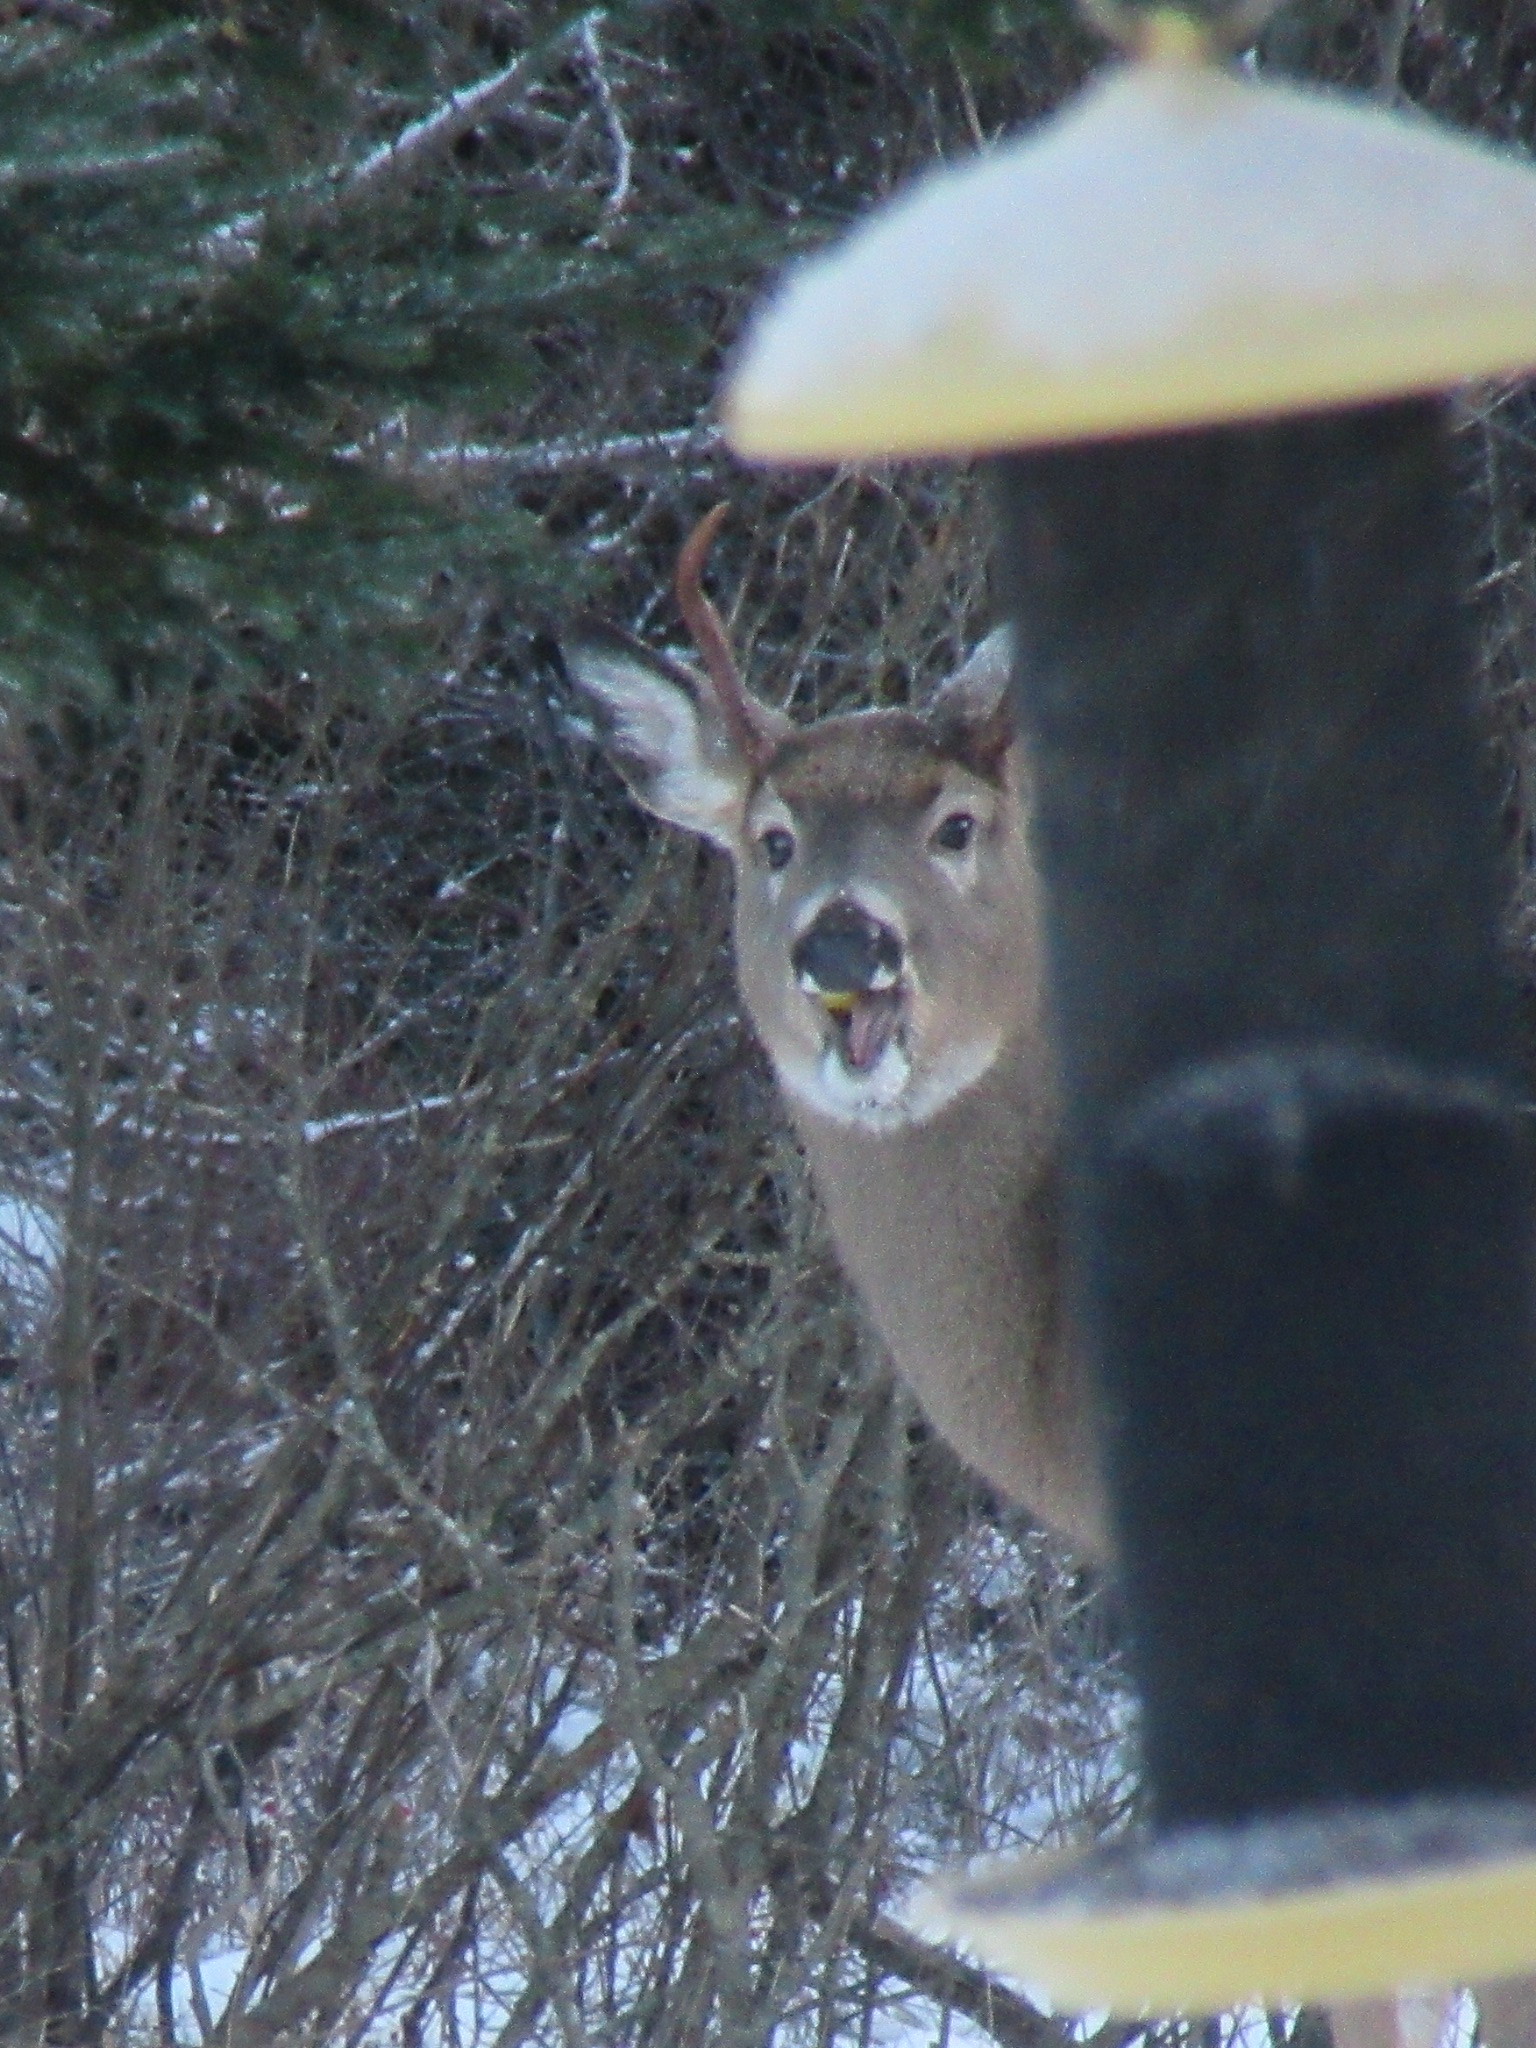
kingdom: Animalia
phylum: Chordata
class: Mammalia
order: Artiodactyla
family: Cervidae
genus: Odocoileus
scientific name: Odocoileus virginianus
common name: White-tailed deer
